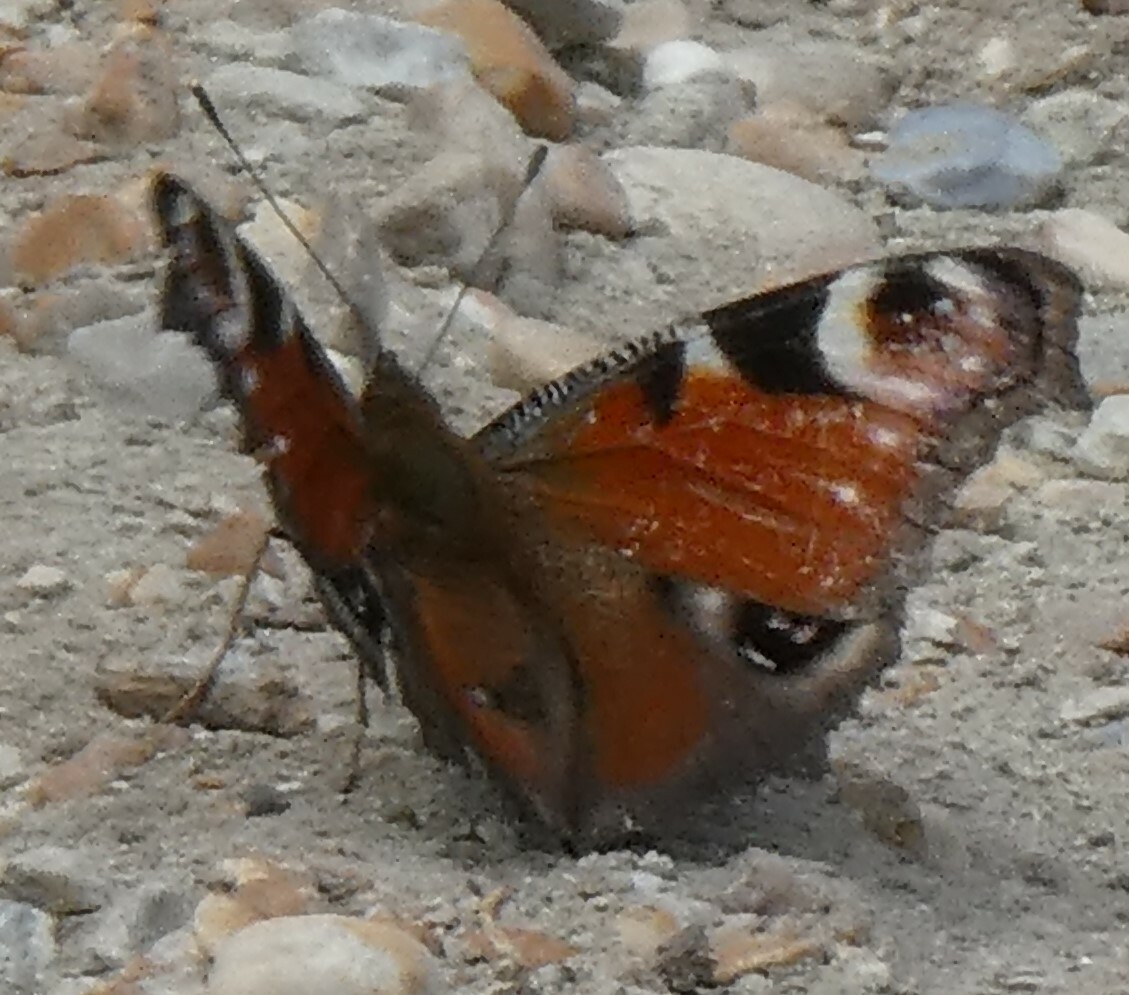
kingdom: Animalia
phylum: Arthropoda
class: Insecta
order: Lepidoptera
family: Nymphalidae
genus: Aglais
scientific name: Aglais io
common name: Peacock
